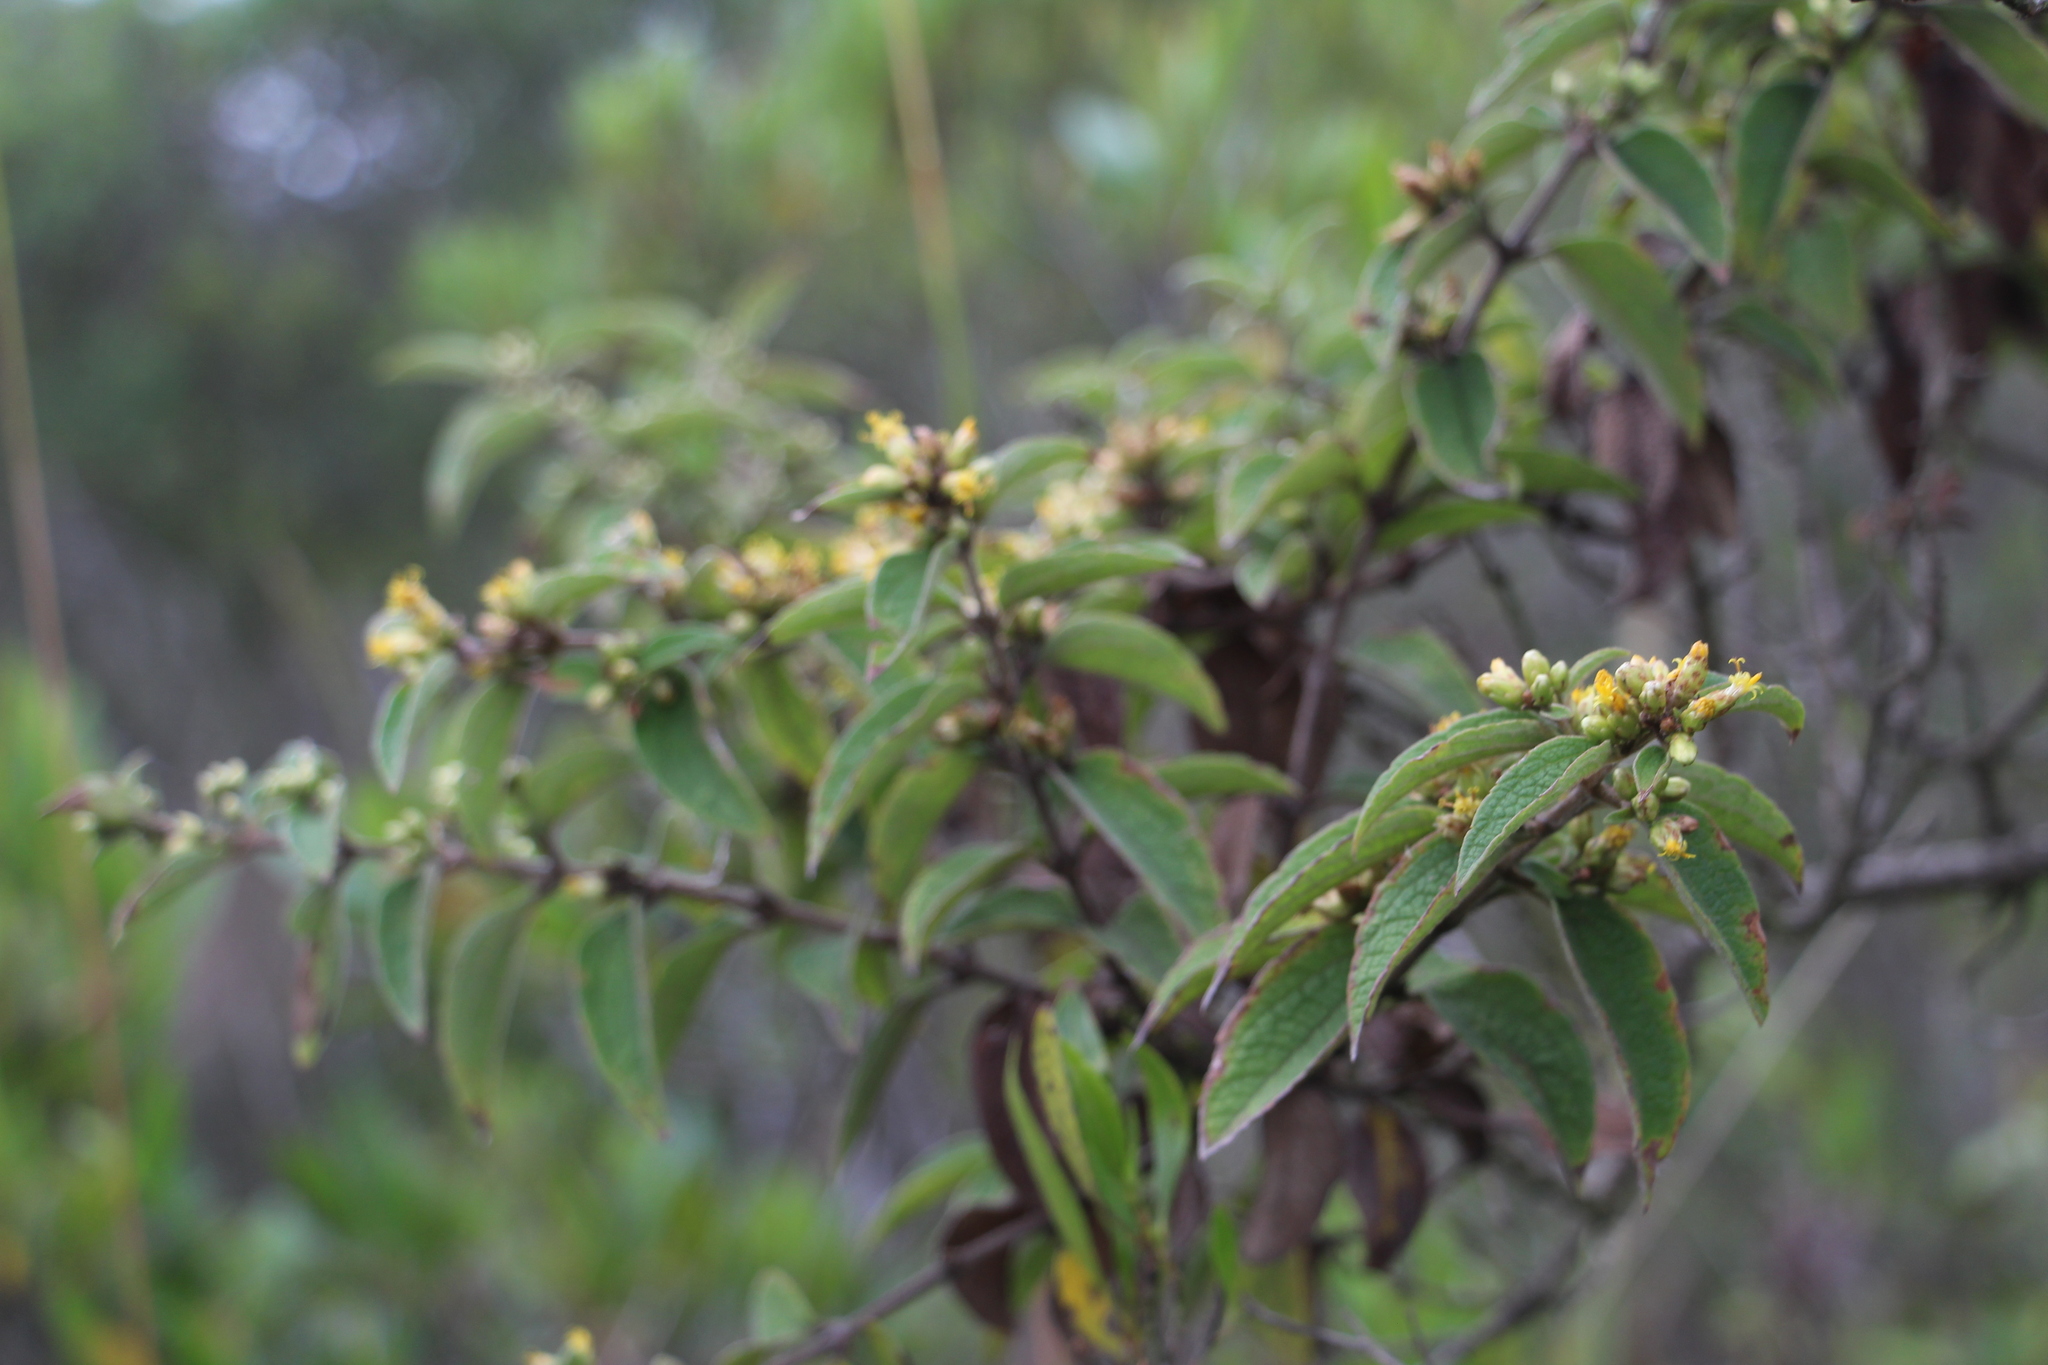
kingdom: Plantae
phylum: Tracheophyta
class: Magnoliopsida
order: Asterales
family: Asteraceae
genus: Calea
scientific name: Calea sessiliflora
